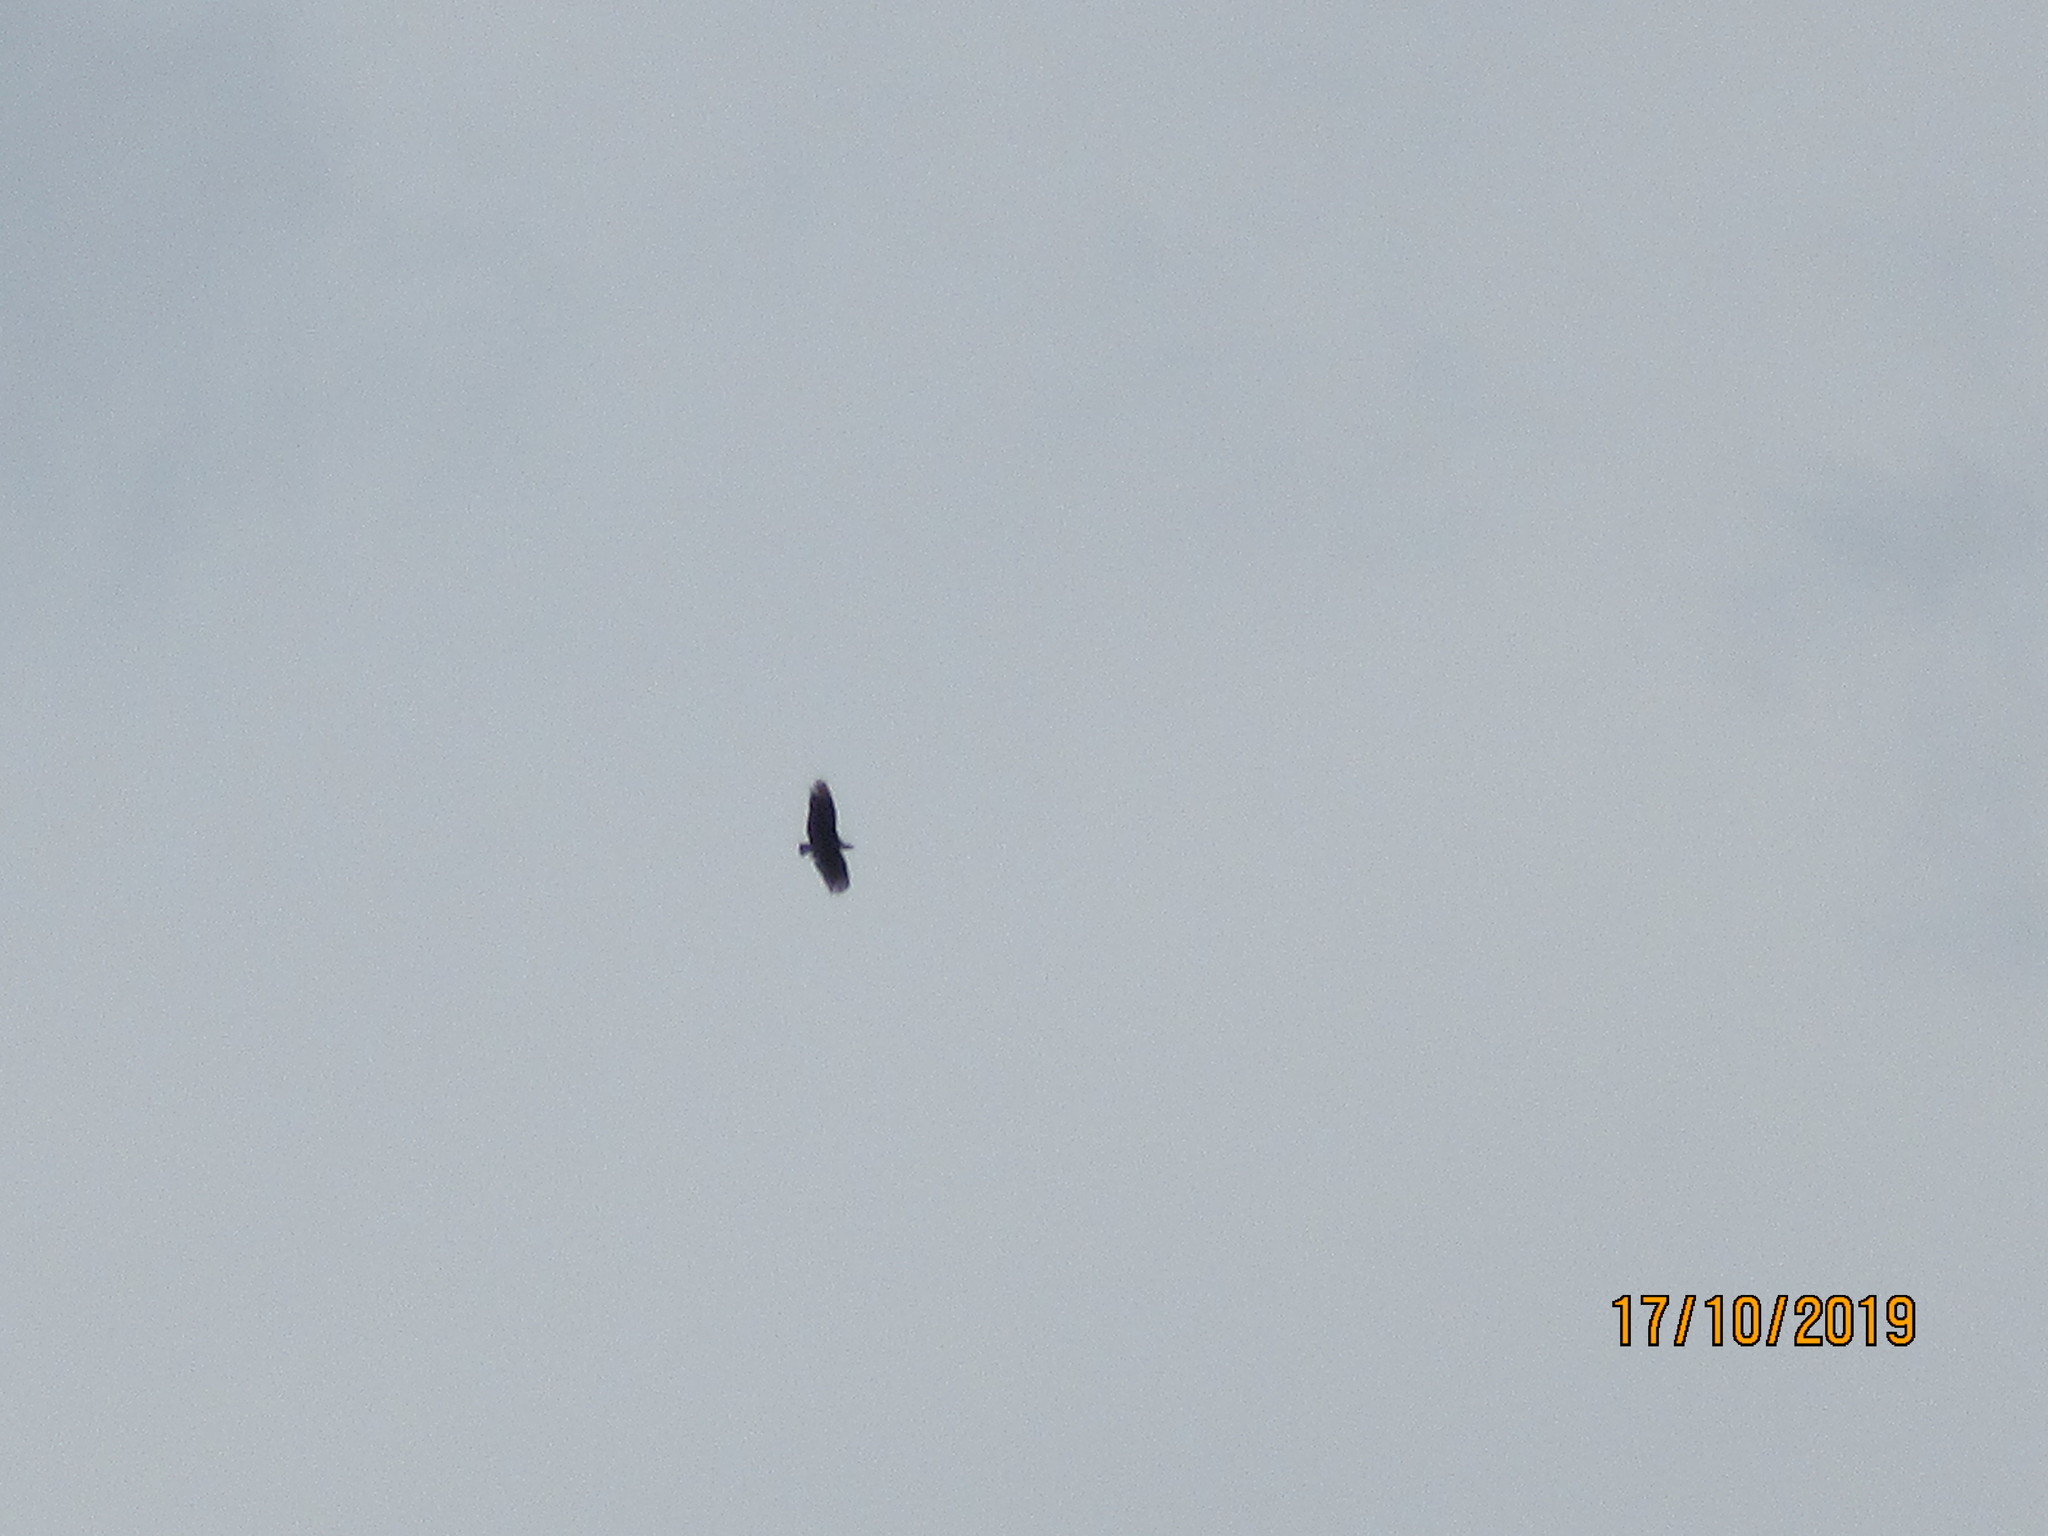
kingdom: Animalia
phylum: Chordata
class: Aves
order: Accipitriformes
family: Cathartidae
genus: Coragyps
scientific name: Coragyps atratus
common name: Black vulture
